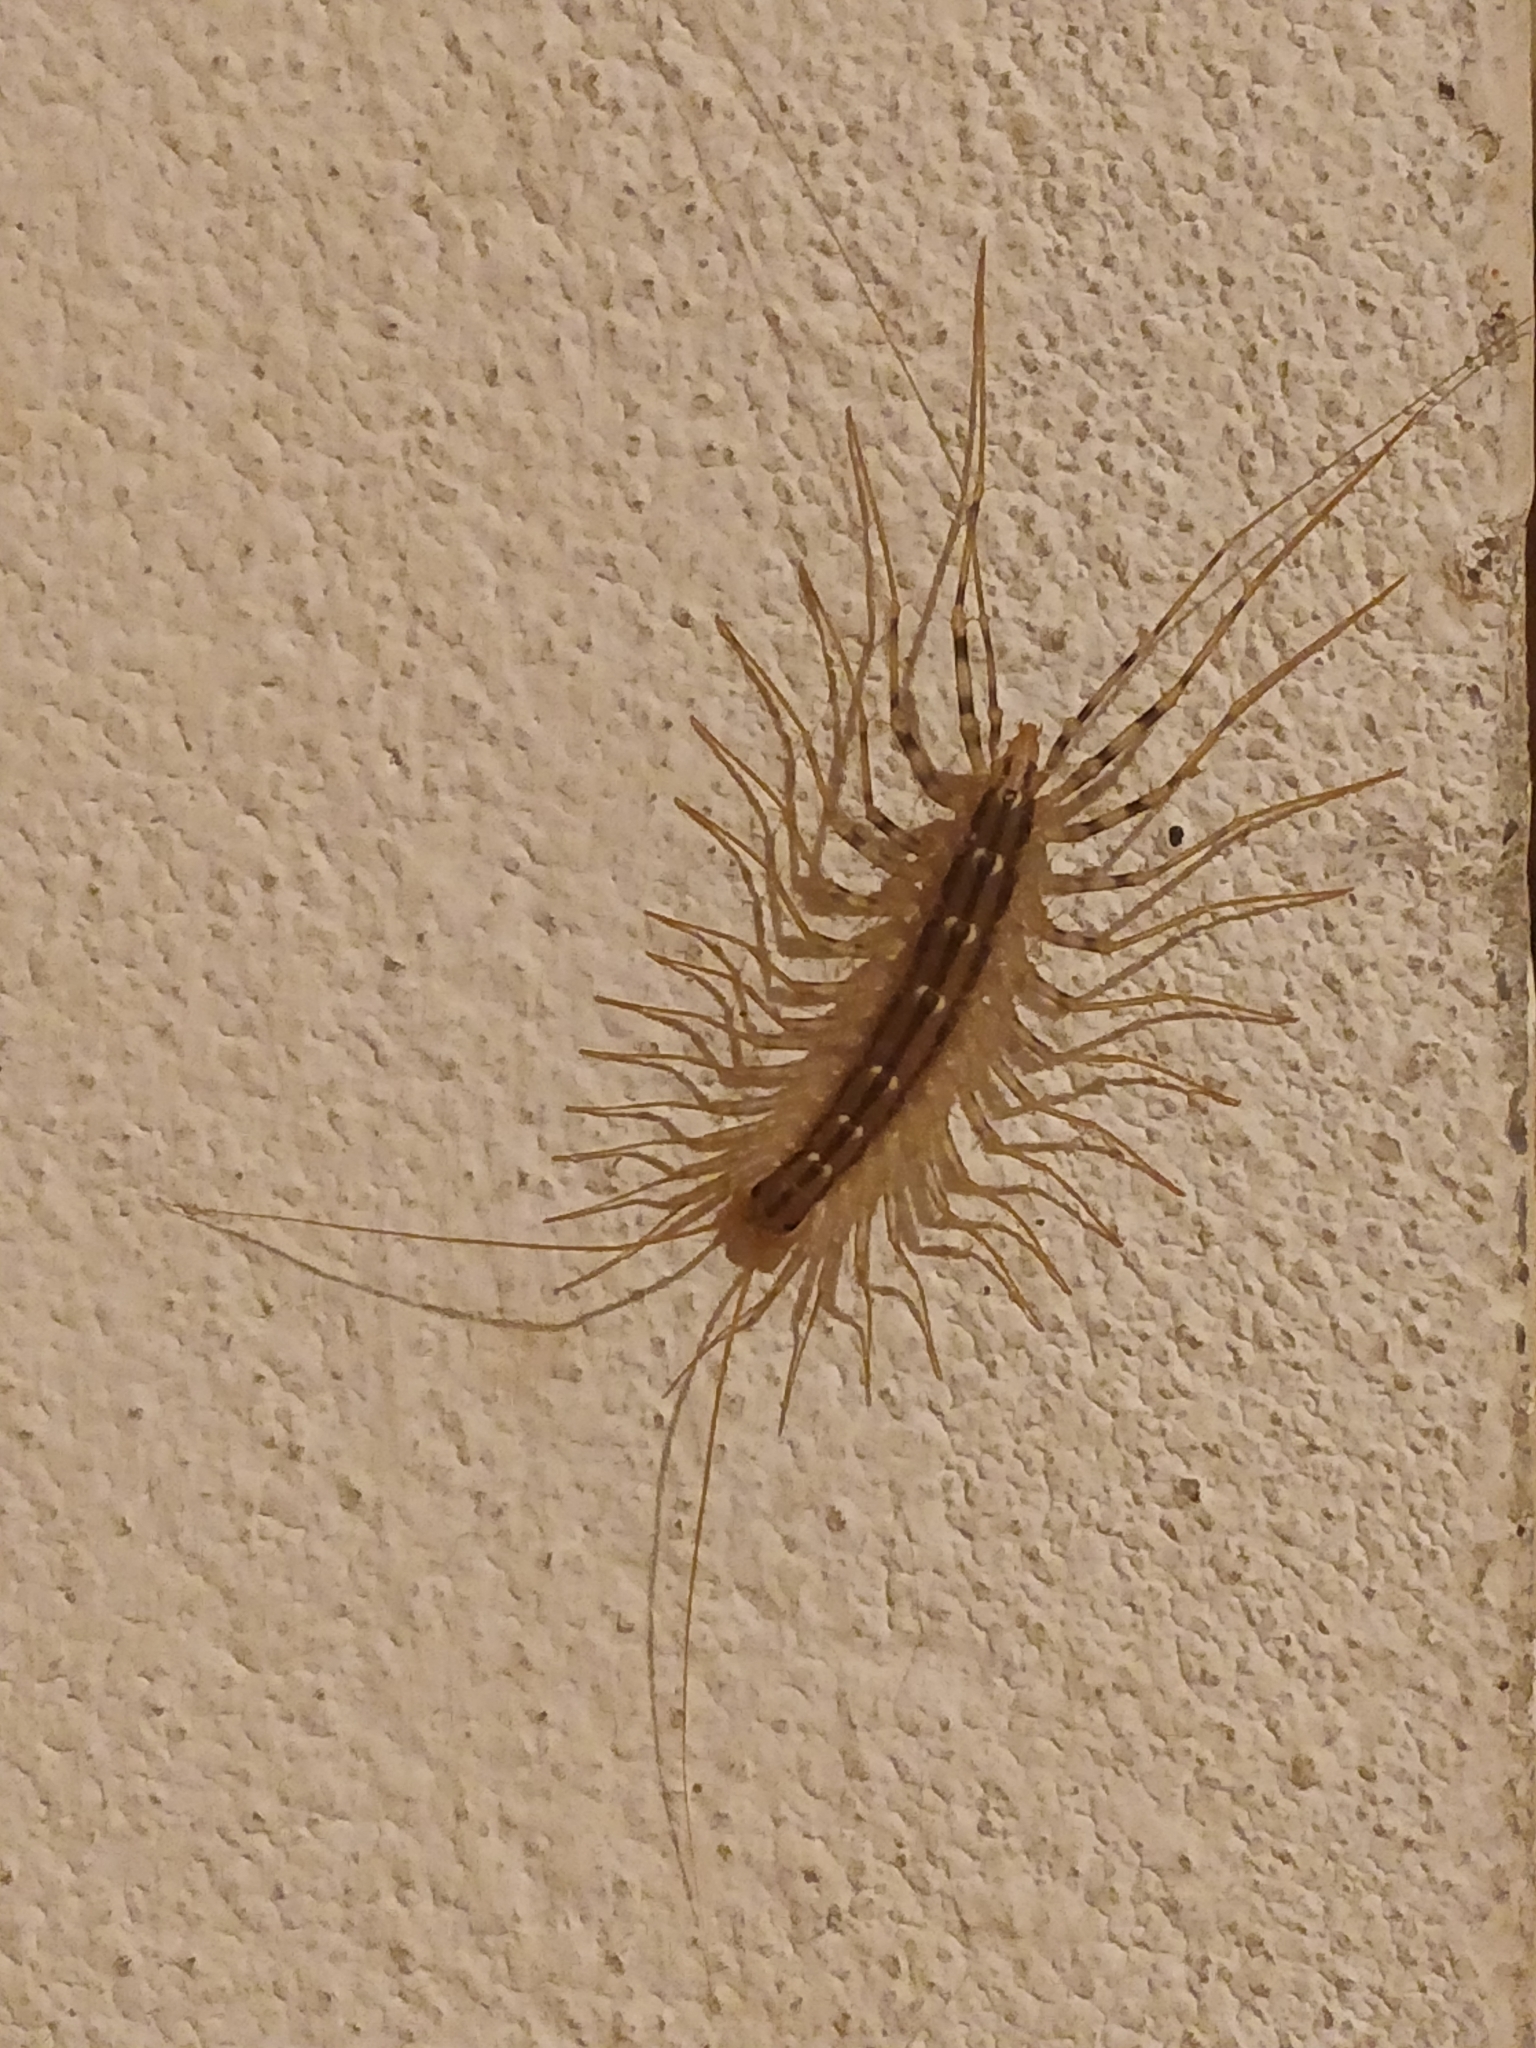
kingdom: Animalia
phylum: Arthropoda
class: Chilopoda
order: Scutigeromorpha
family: Scutigeridae
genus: Scutigera
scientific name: Scutigera coleoptrata
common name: House centipede
